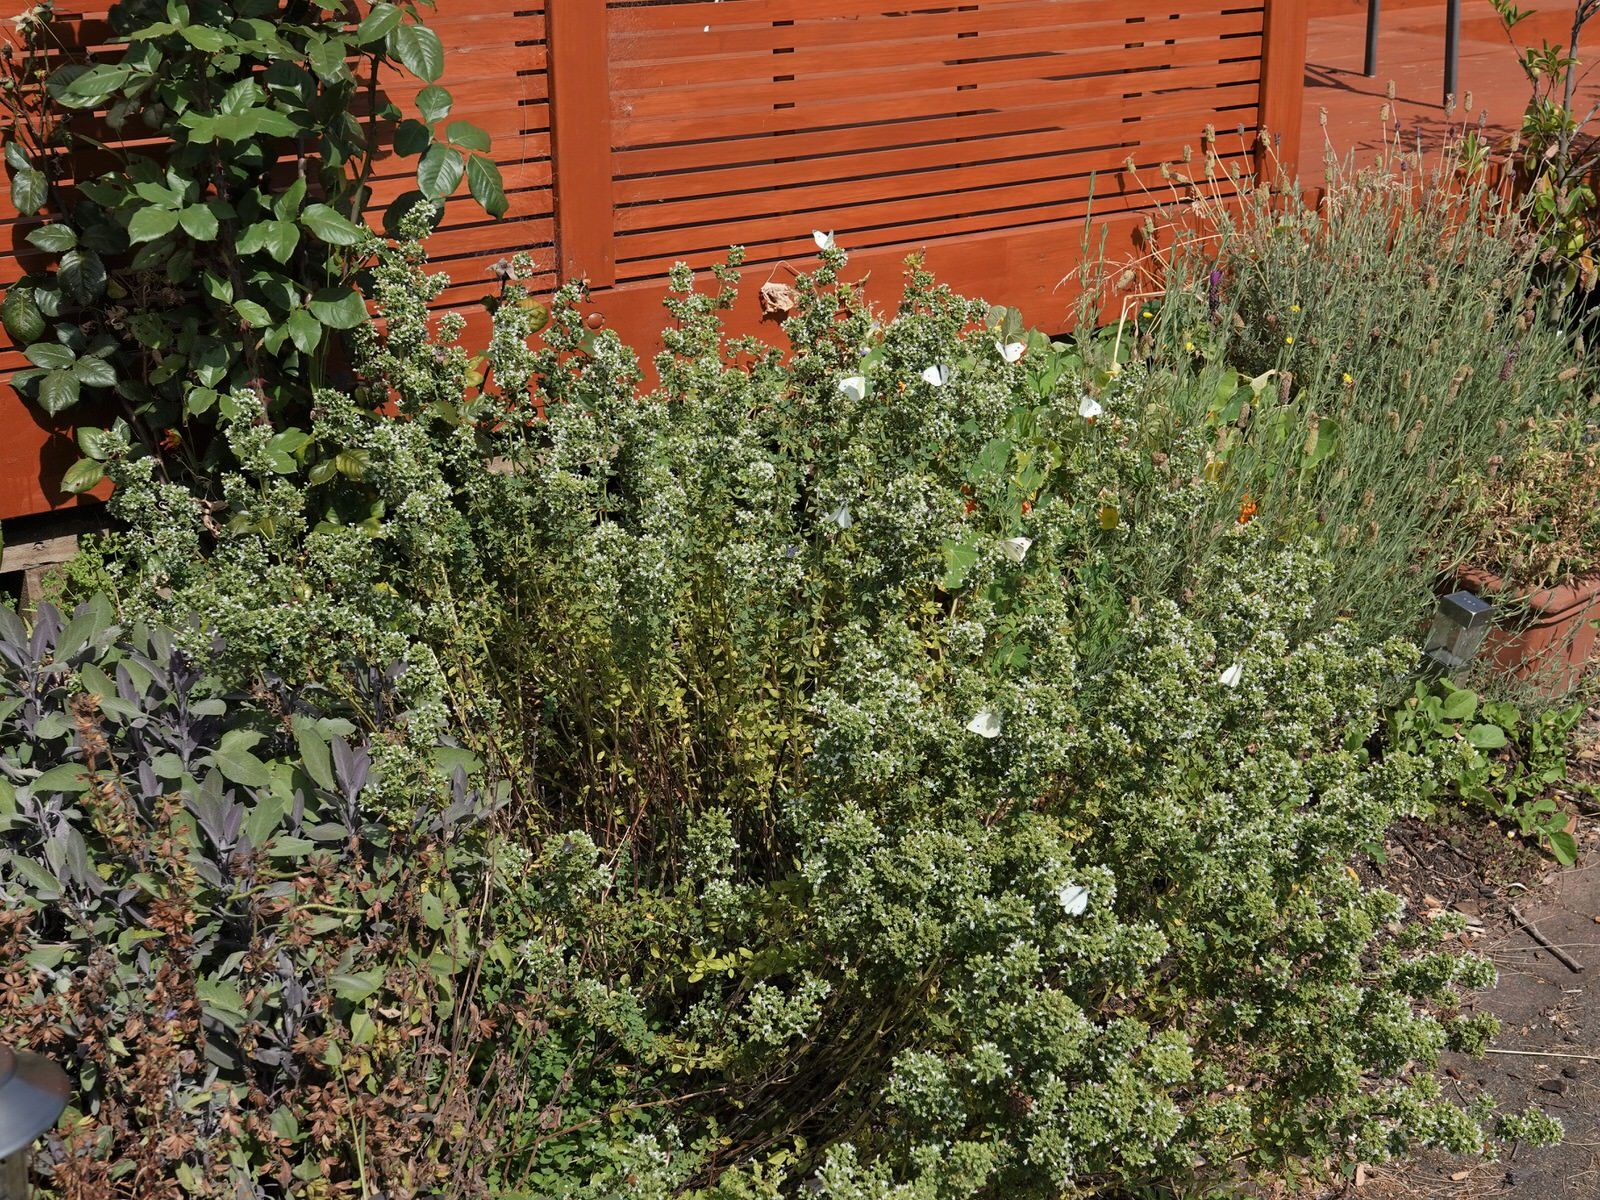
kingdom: Animalia
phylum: Arthropoda
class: Insecta
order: Lepidoptera
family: Pieridae
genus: Pieris
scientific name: Pieris rapae
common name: Small white
